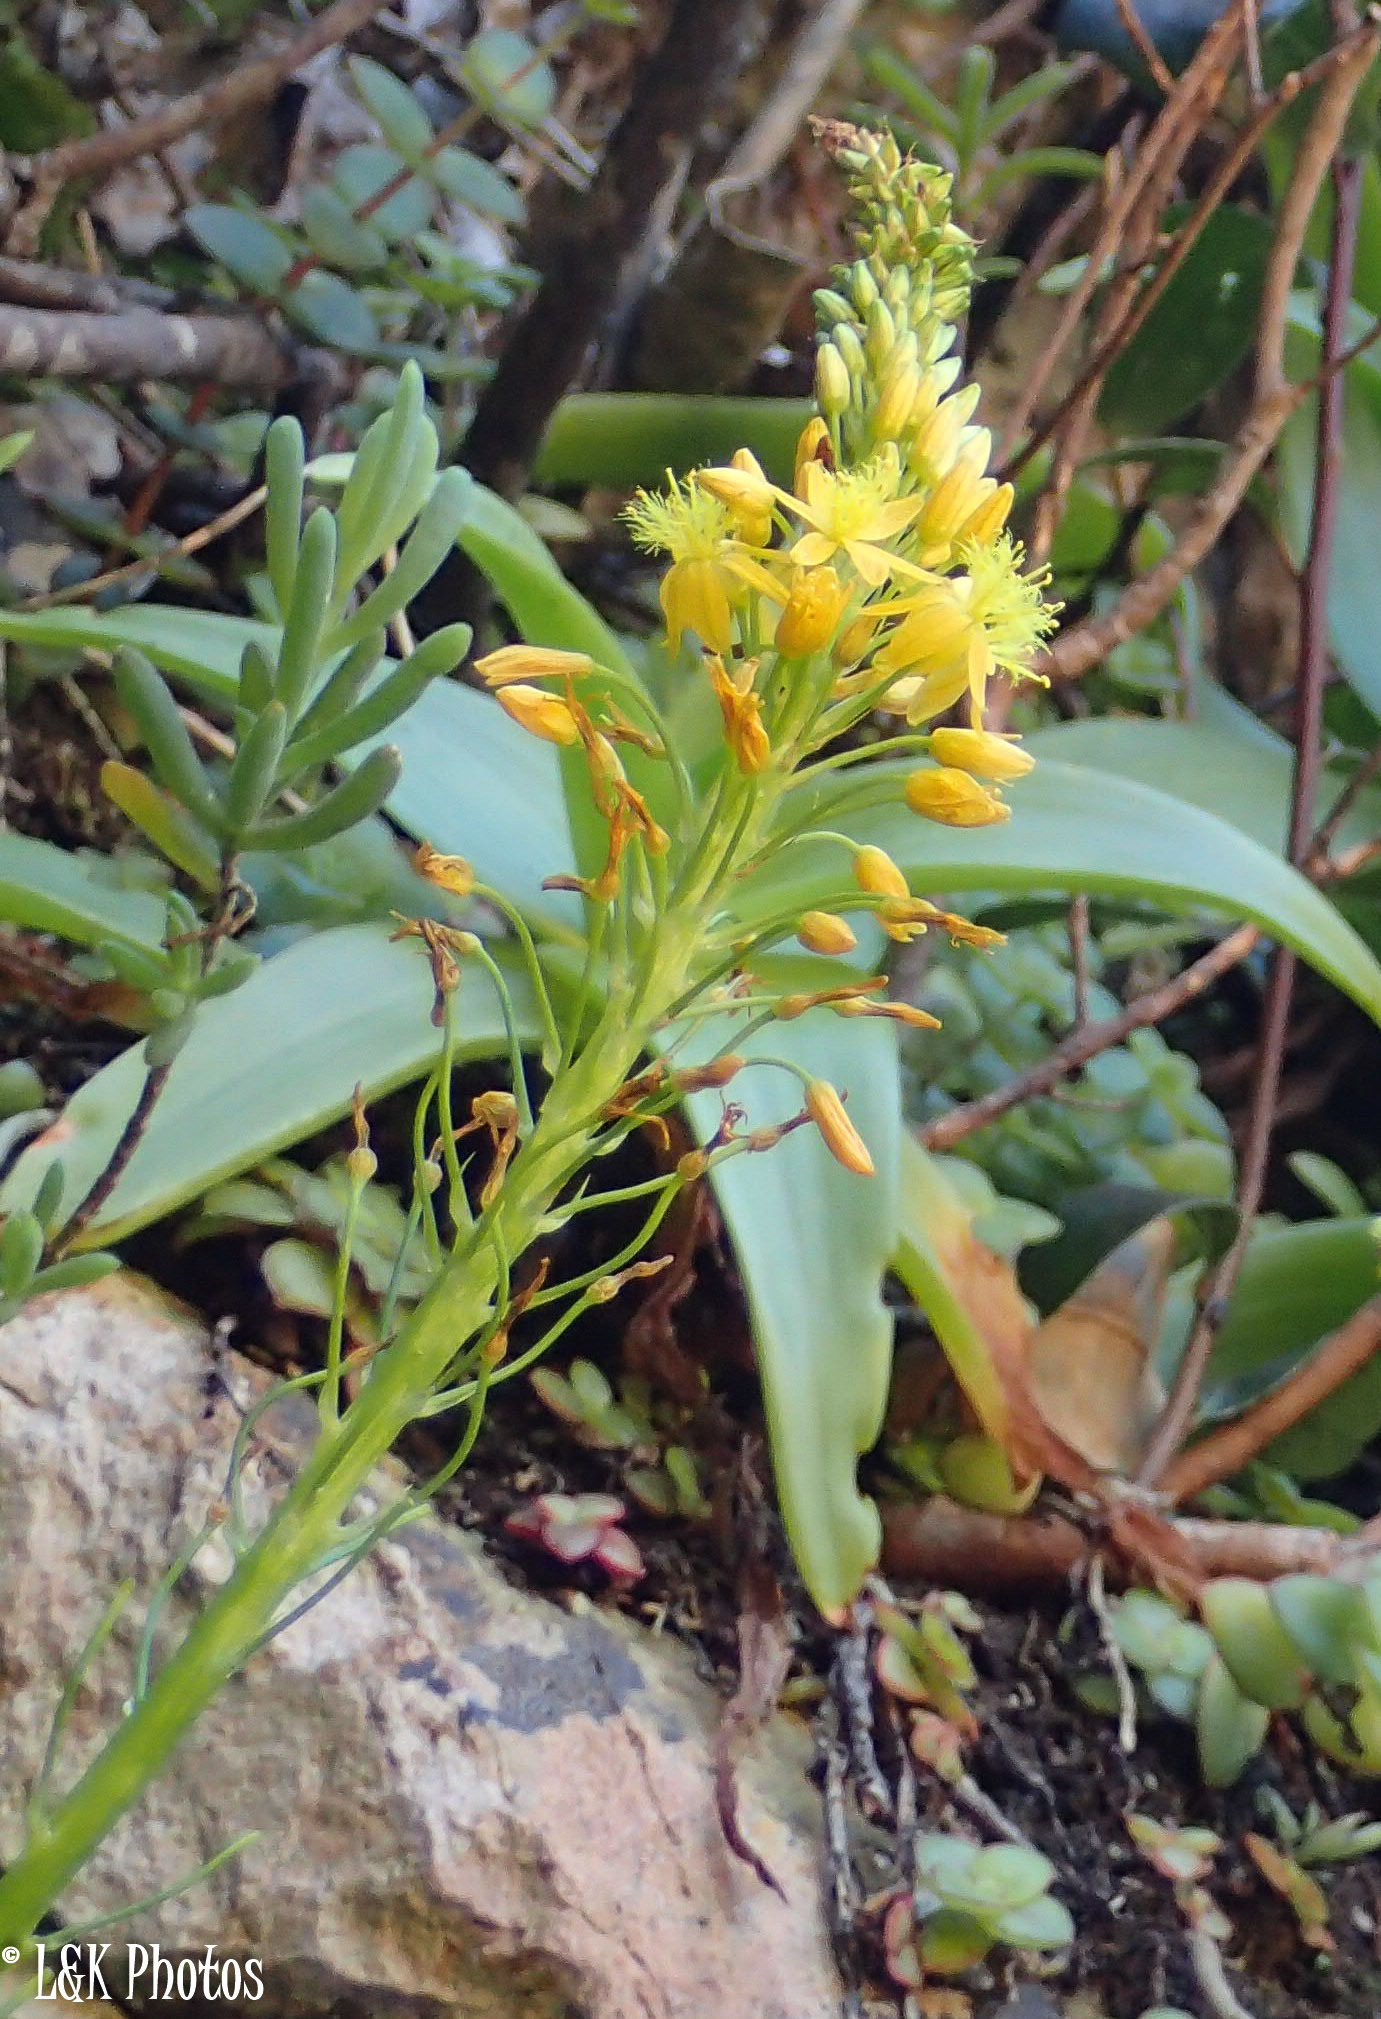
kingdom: Plantae
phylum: Tracheophyta
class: Liliopsida
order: Asparagales
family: Asphodelaceae
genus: Bulbine
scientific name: Bulbine latifolia
